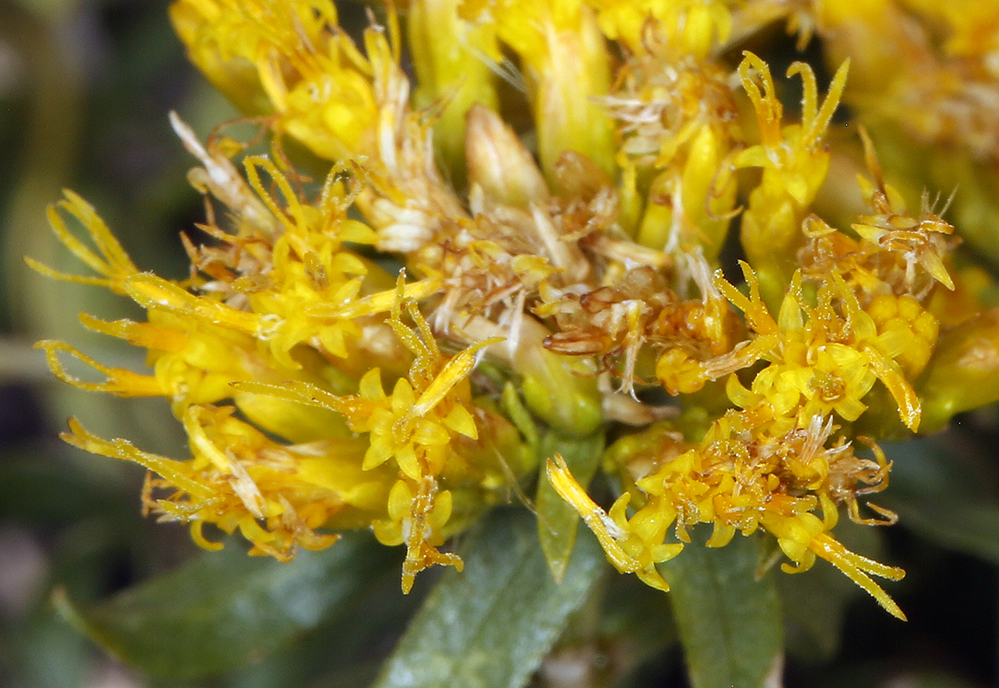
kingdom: Plantae
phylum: Tracheophyta
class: Magnoliopsida
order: Asterales
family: Asteraceae
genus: Chrysothamnus
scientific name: Chrysothamnus viscidiflorus
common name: Yellow rabbitbrush
